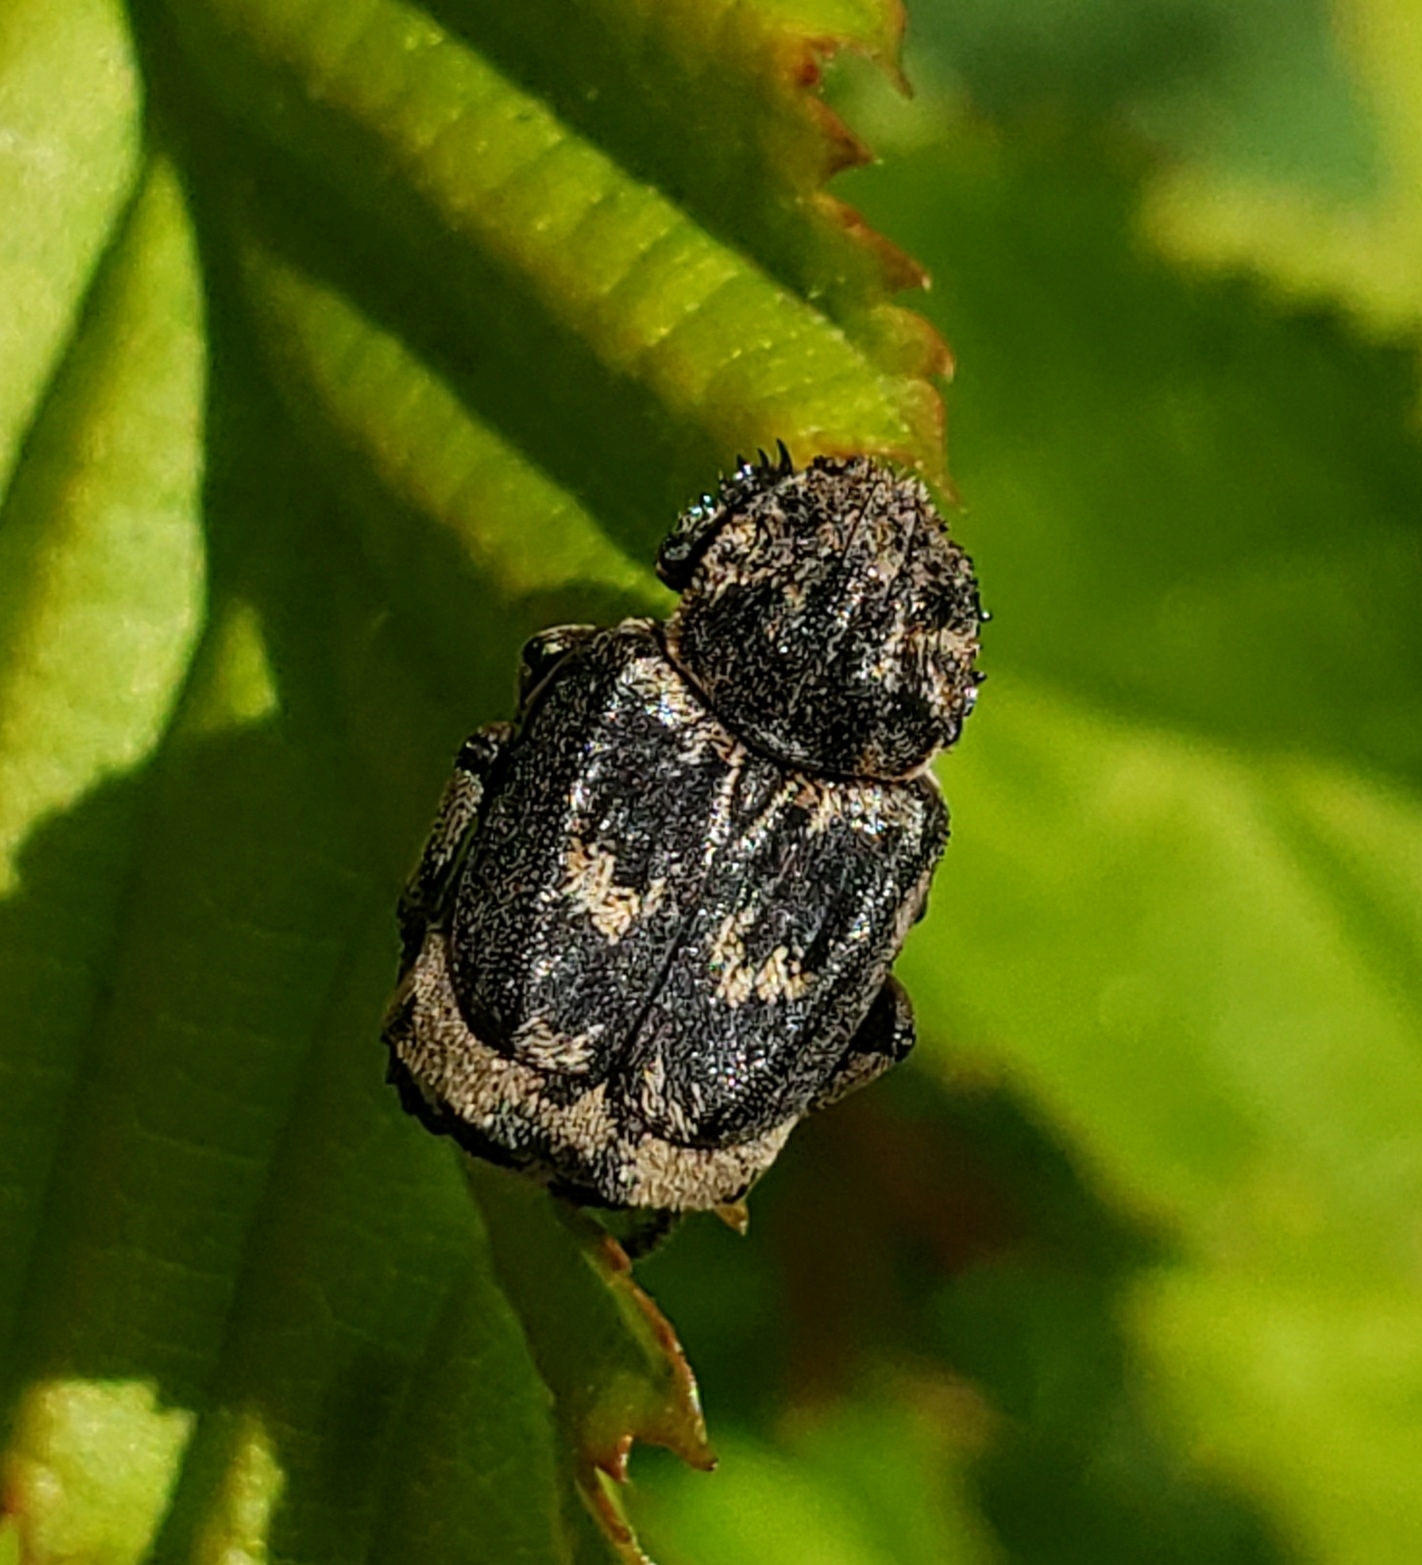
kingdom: Animalia
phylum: Arthropoda
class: Insecta
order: Coleoptera
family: Scarabaeidae
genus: Valgus
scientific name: Valgus hemipterus
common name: Bug flower chafer
